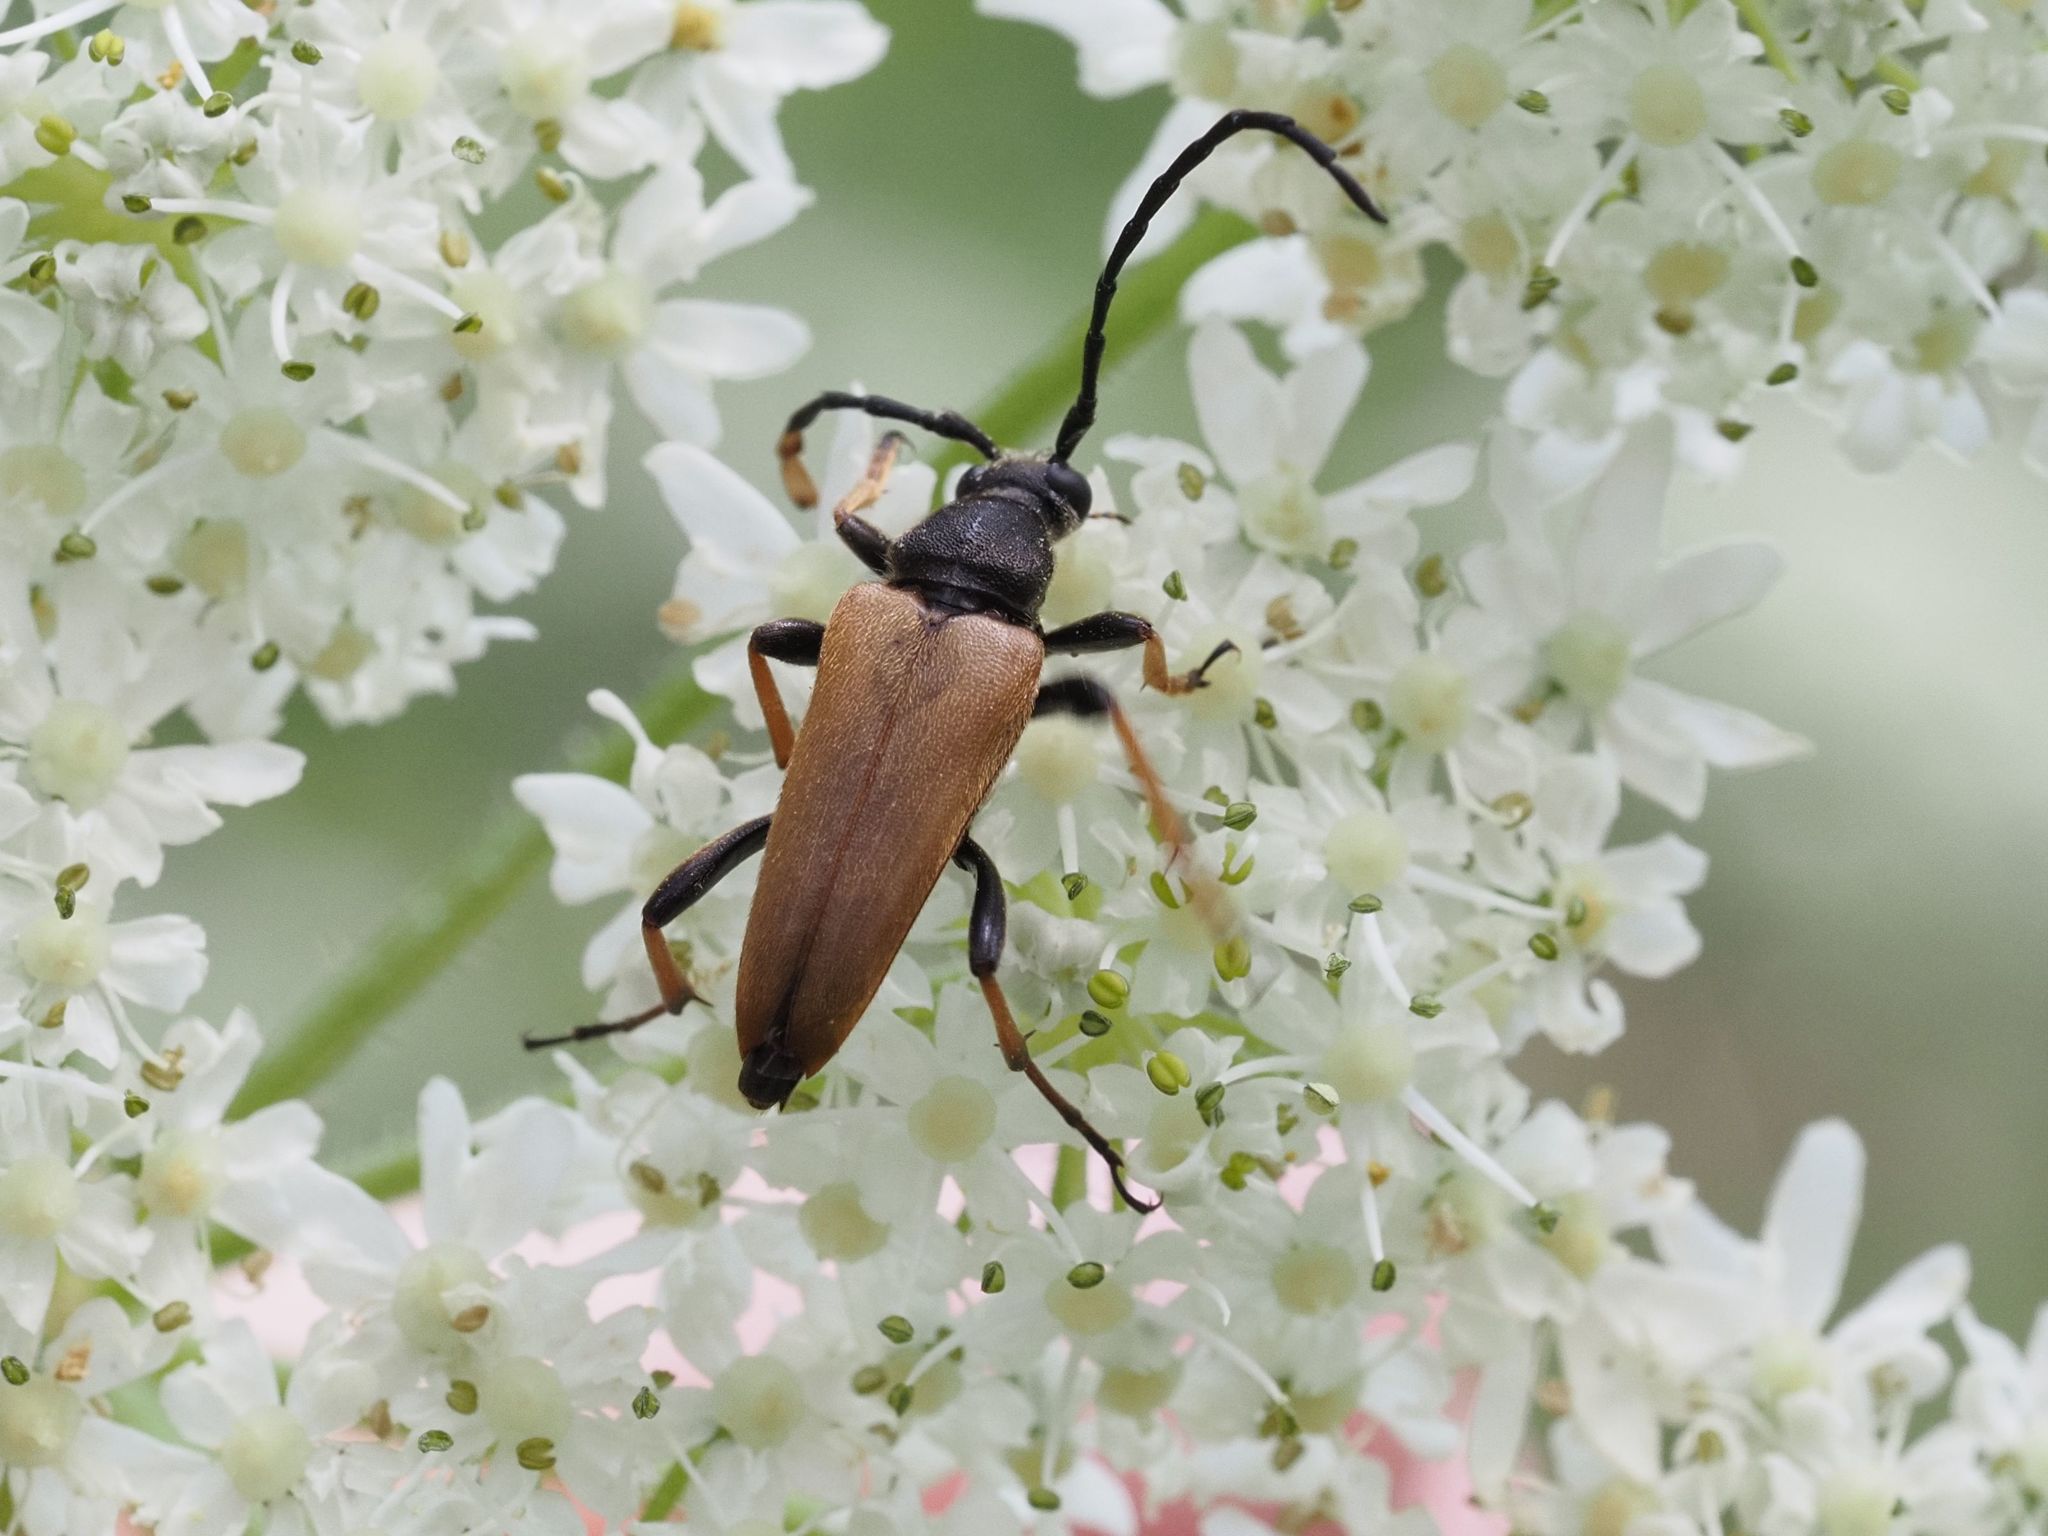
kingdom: Animalia
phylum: Arthropoda
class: Insecta
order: Coleoptera
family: Cerambycidae
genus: Stictoleptura
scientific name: Stictoleptura rubra
